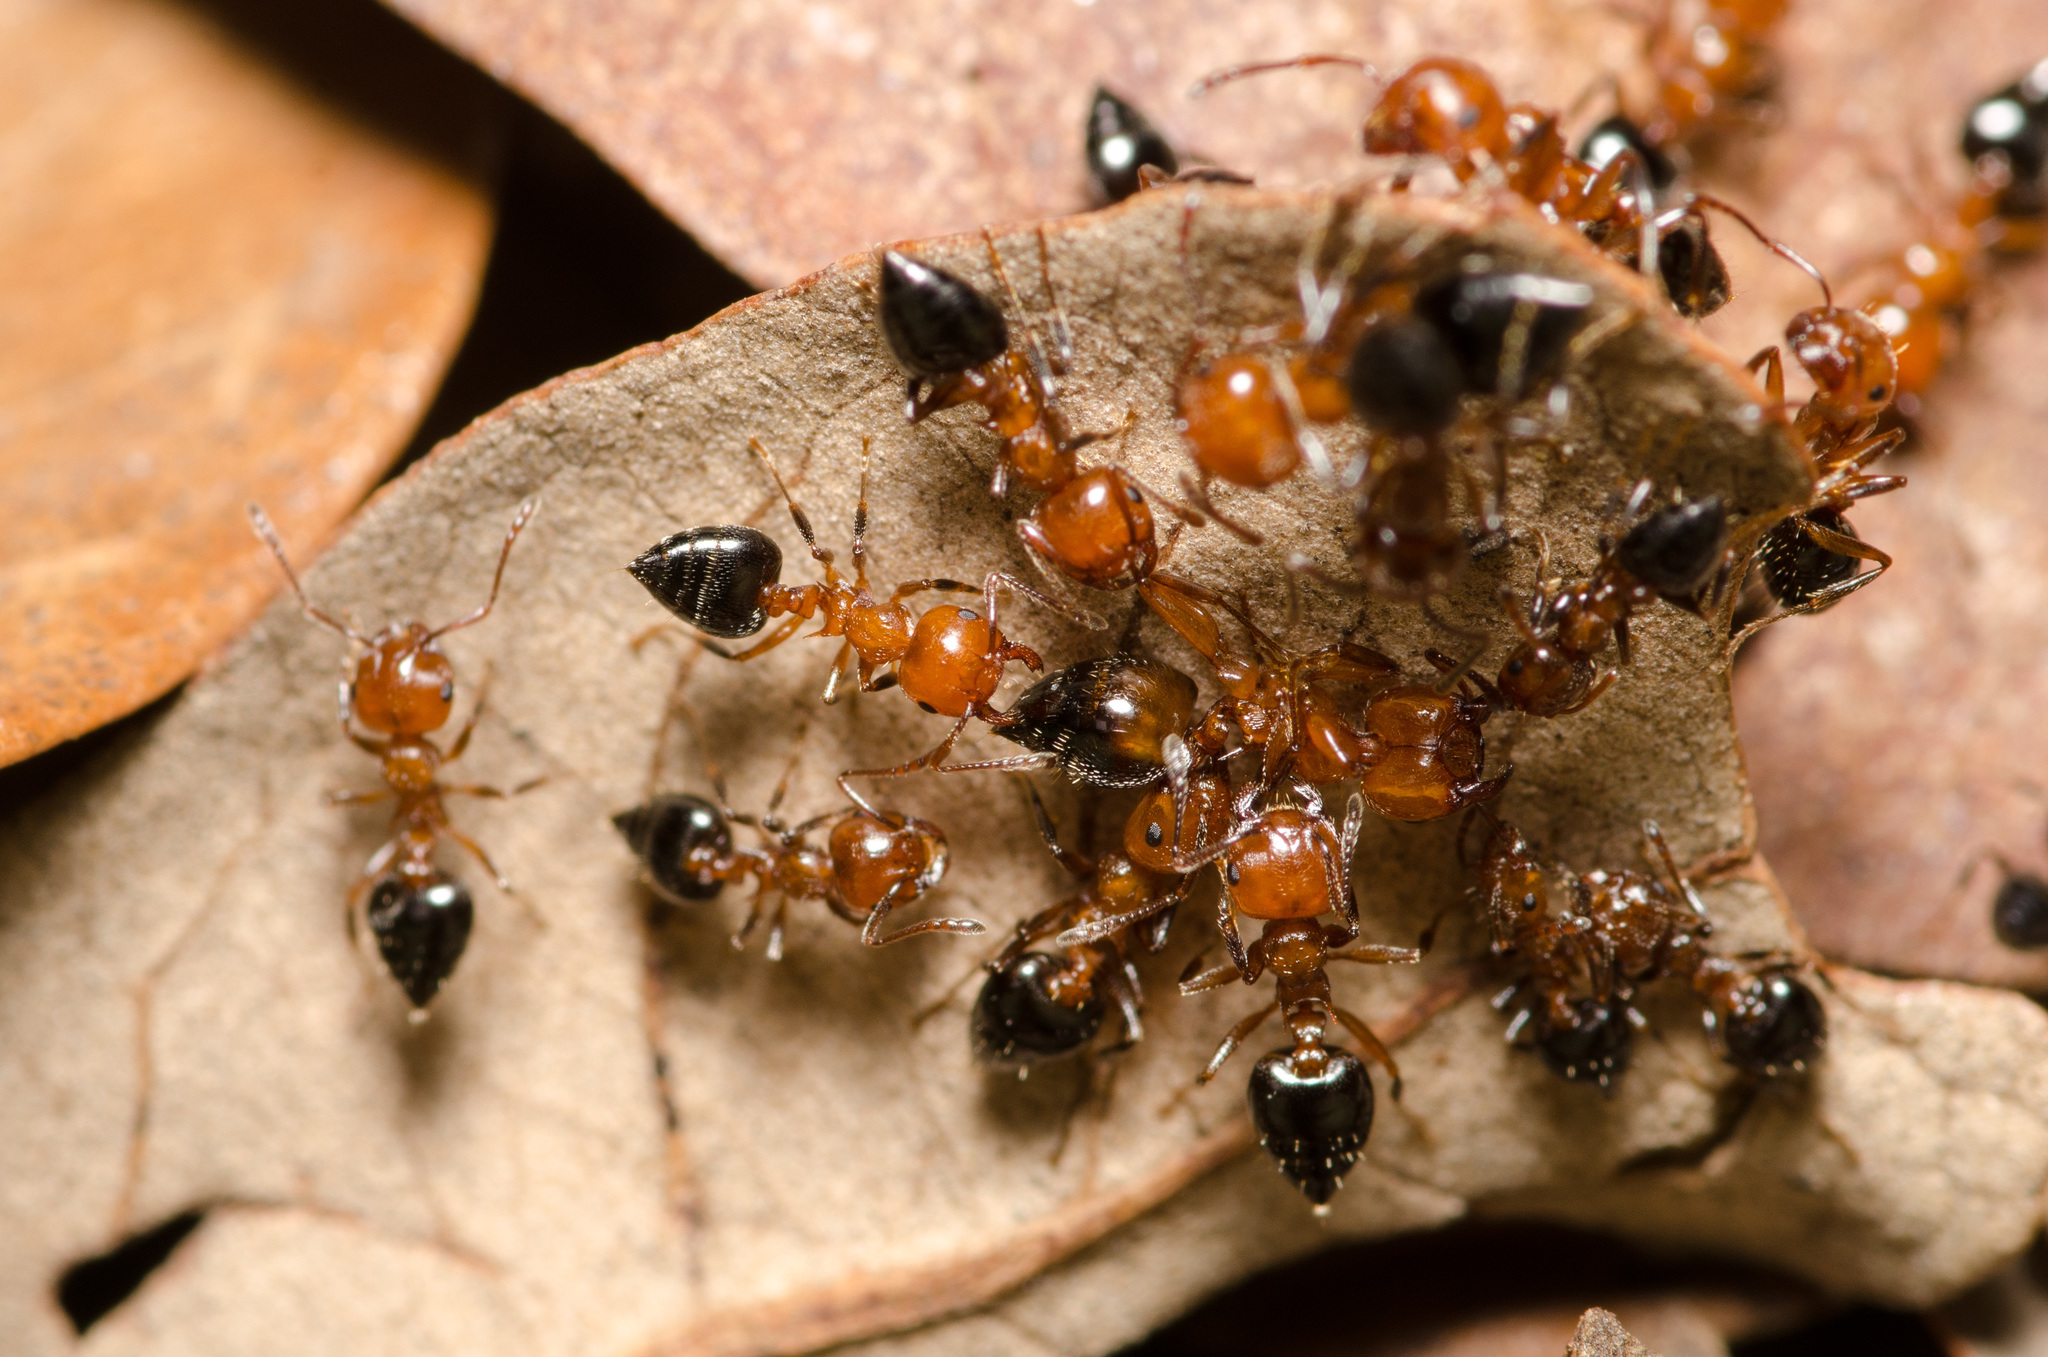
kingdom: Animalia
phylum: Arthropoda
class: Insecta
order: Hymenoptera
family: Formicidae
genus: Crematogaster
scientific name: Crematogaster laeviuscula
